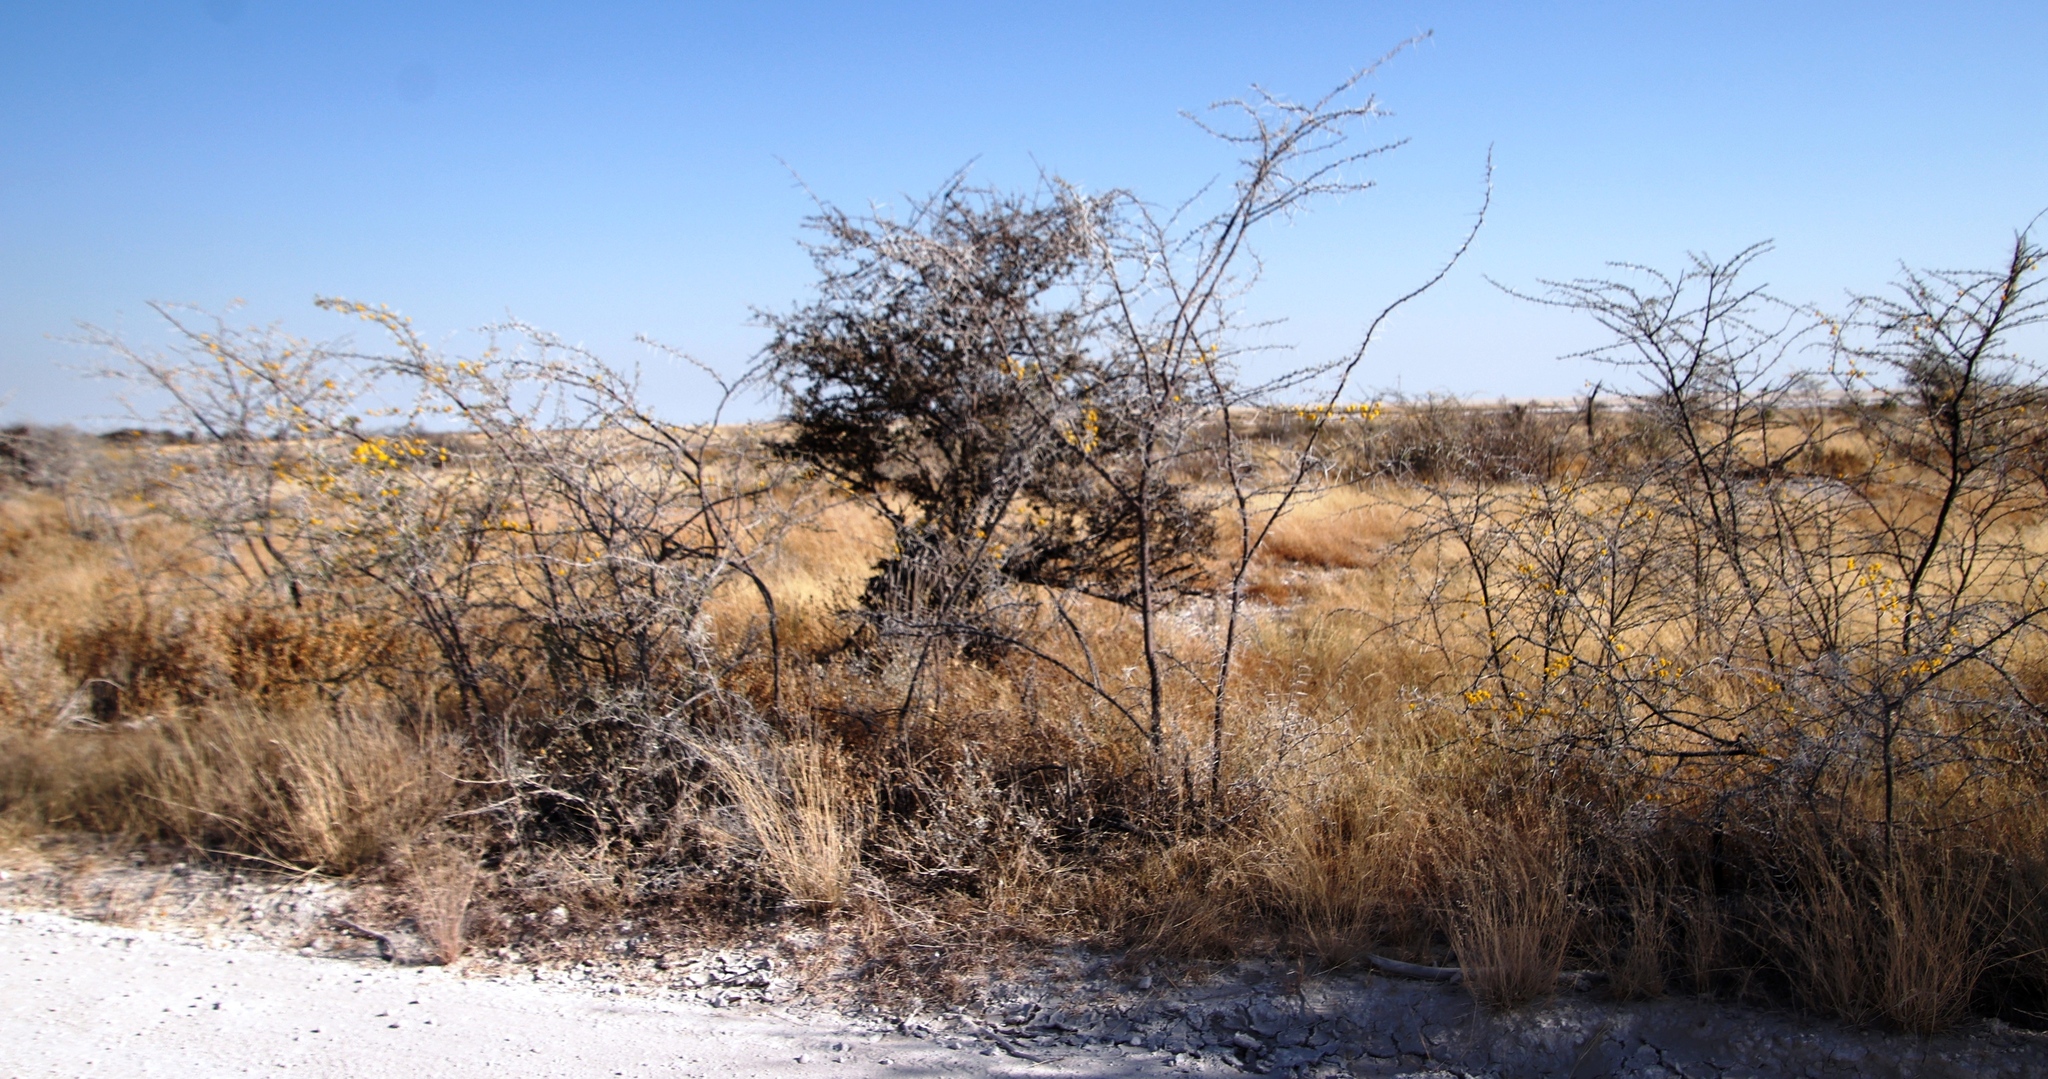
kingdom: Plantae
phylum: Tracheophyta
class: Magnoliopsida
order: Fabales
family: Fabaceae
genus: Vachellia
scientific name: Vachellia nebrownii
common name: Water acacia
